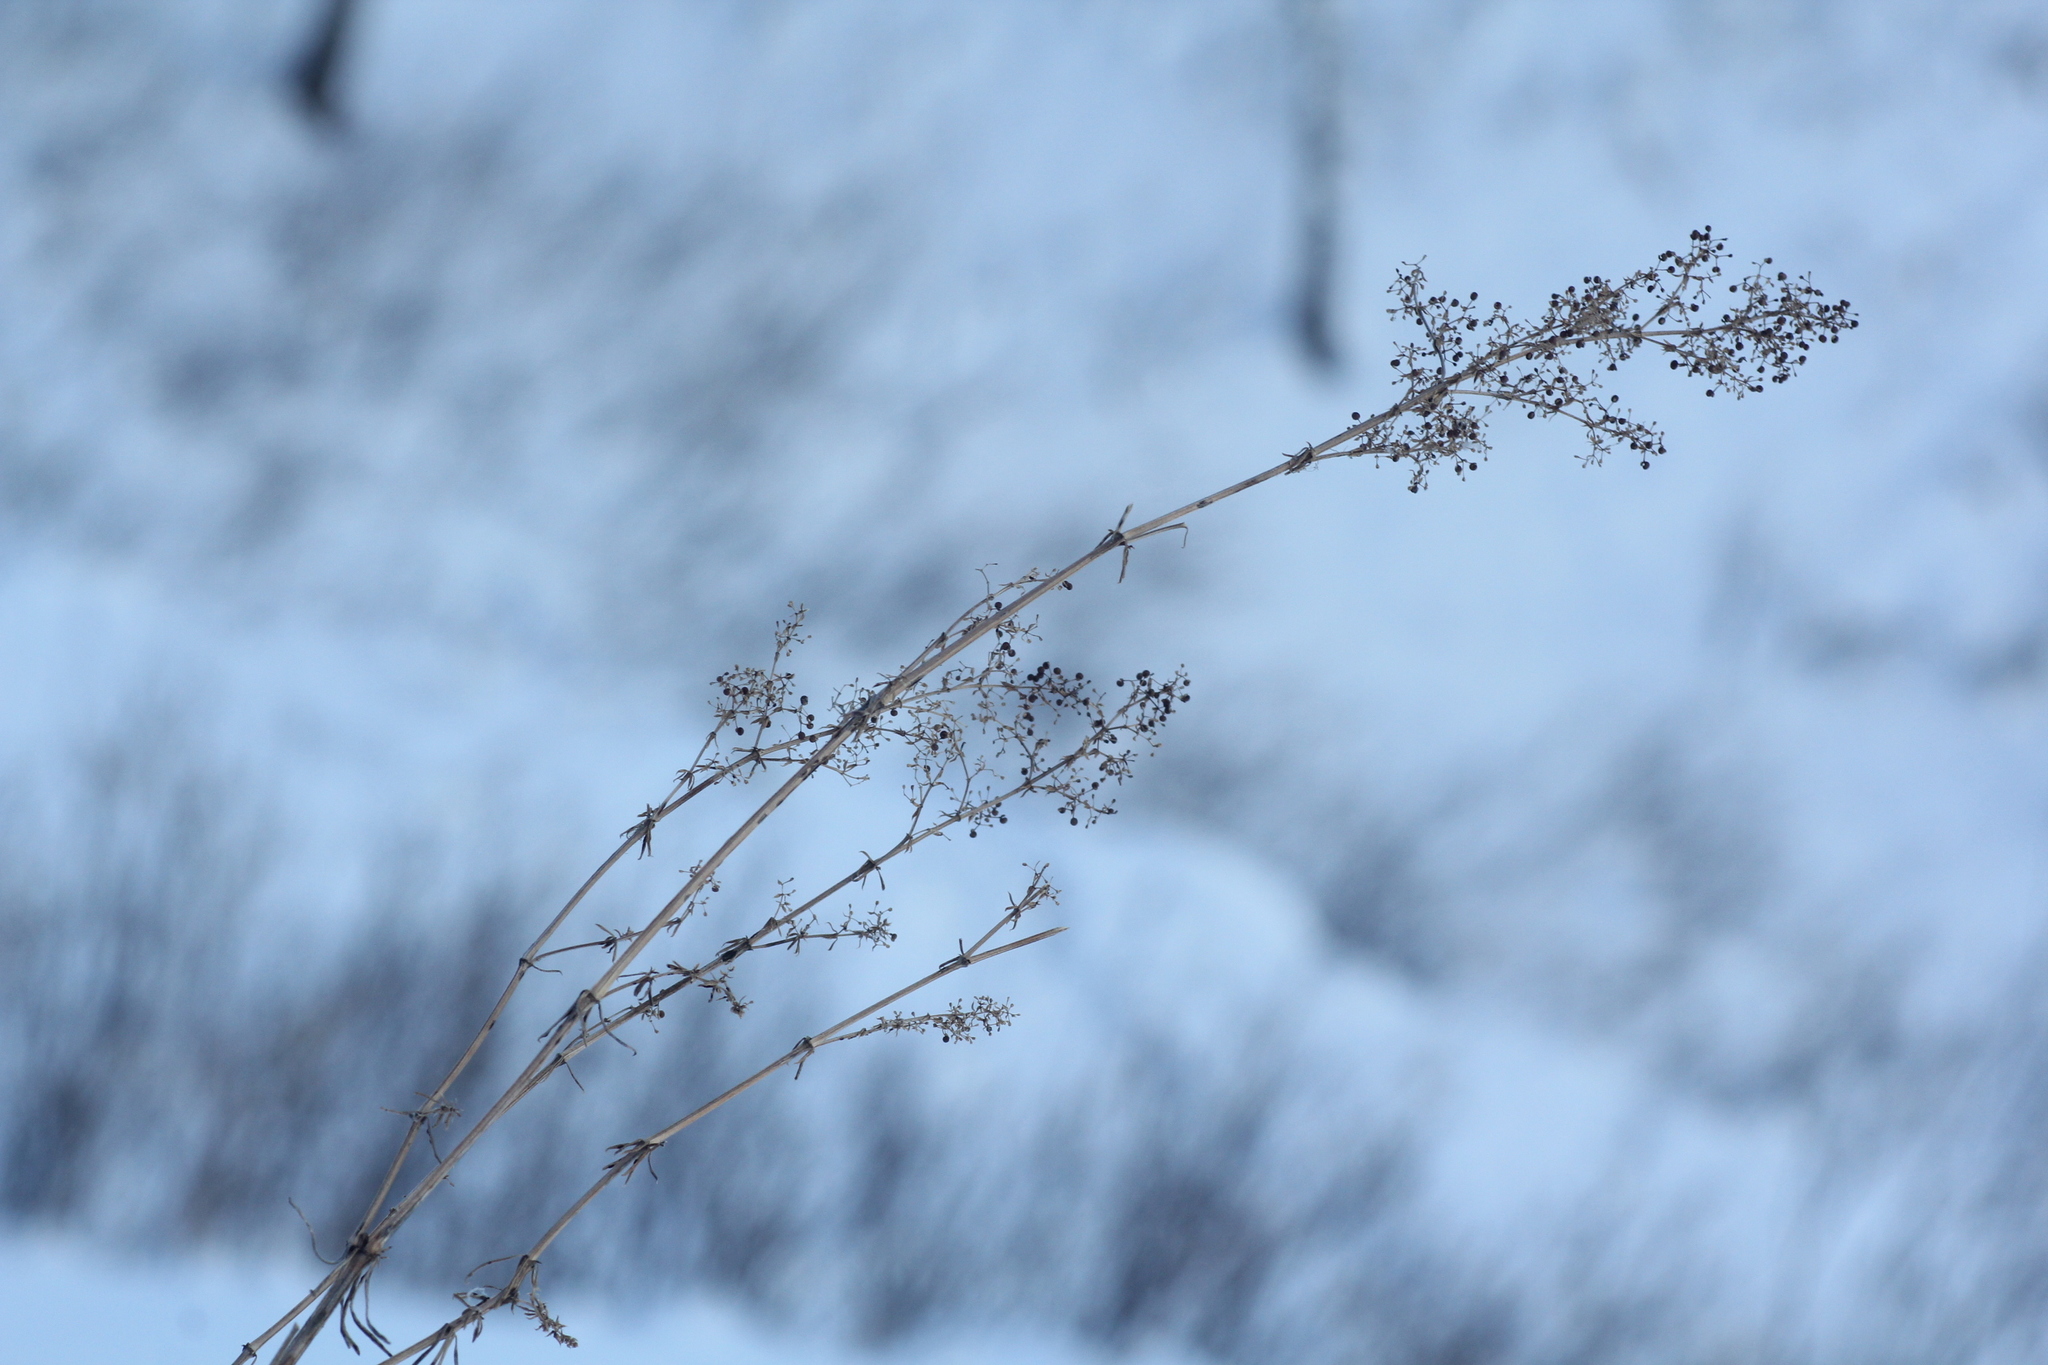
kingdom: Plantae
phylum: Tracheophyta
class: Magnoliopsida
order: Gentianales
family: Rubiaceae
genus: Galium
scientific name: Galium verum
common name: Lady's bedstraw
